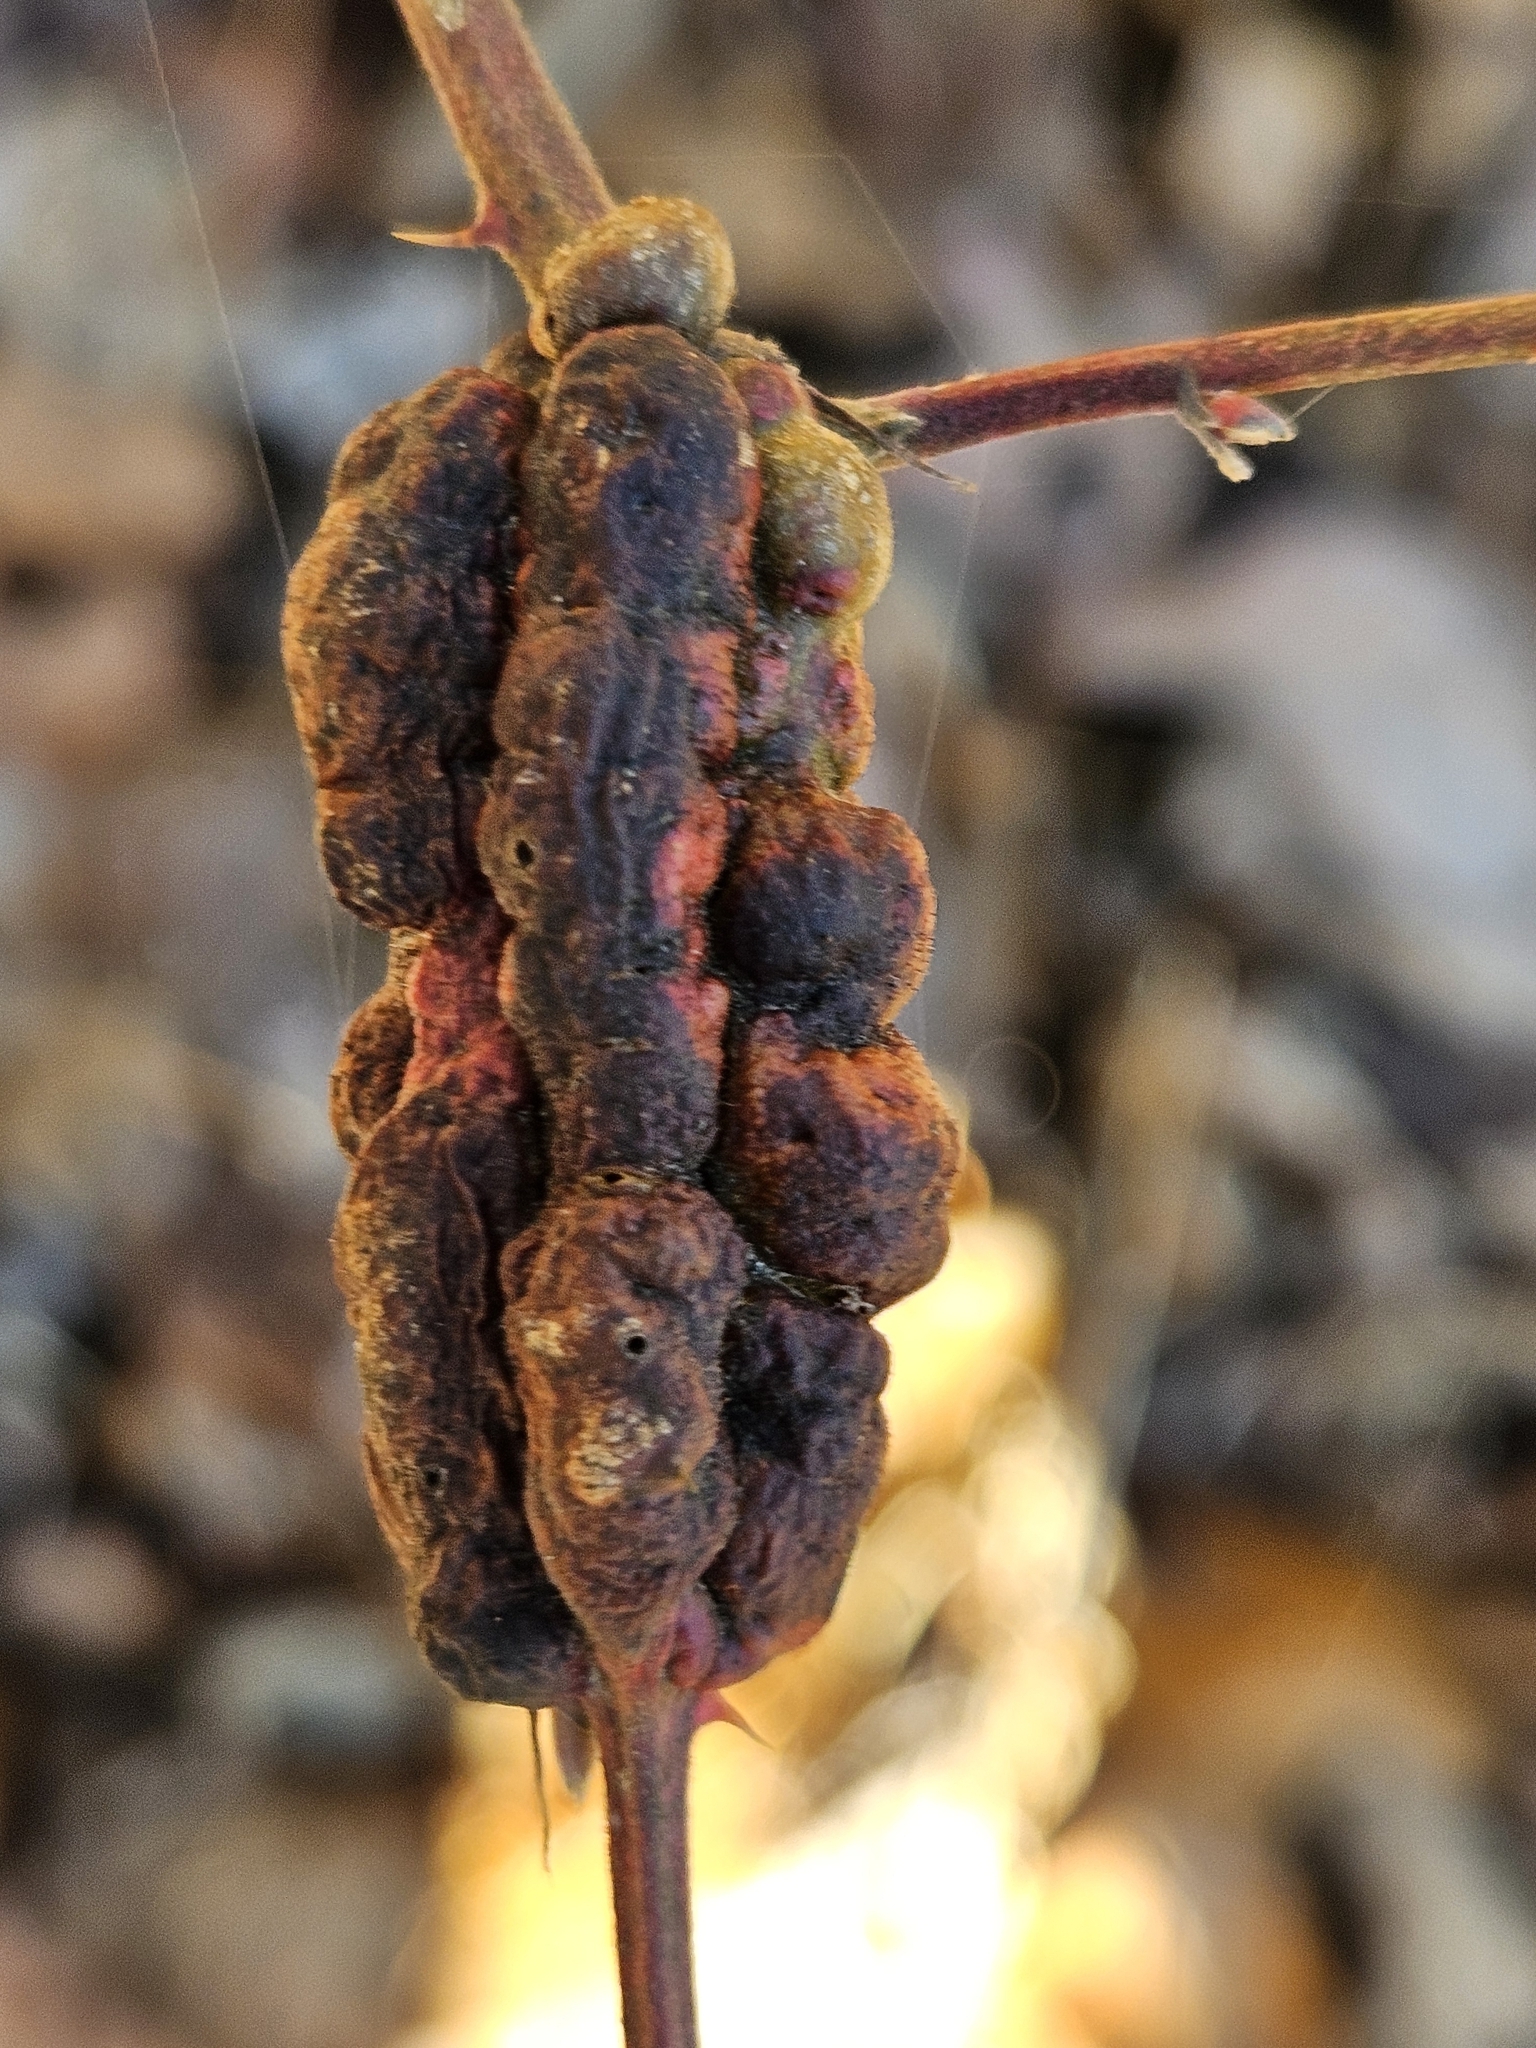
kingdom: Animalia
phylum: Arthropoda
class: Insecta
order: Hymenoptera
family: Cynipidae
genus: Diastrophus
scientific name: Diastrophus
